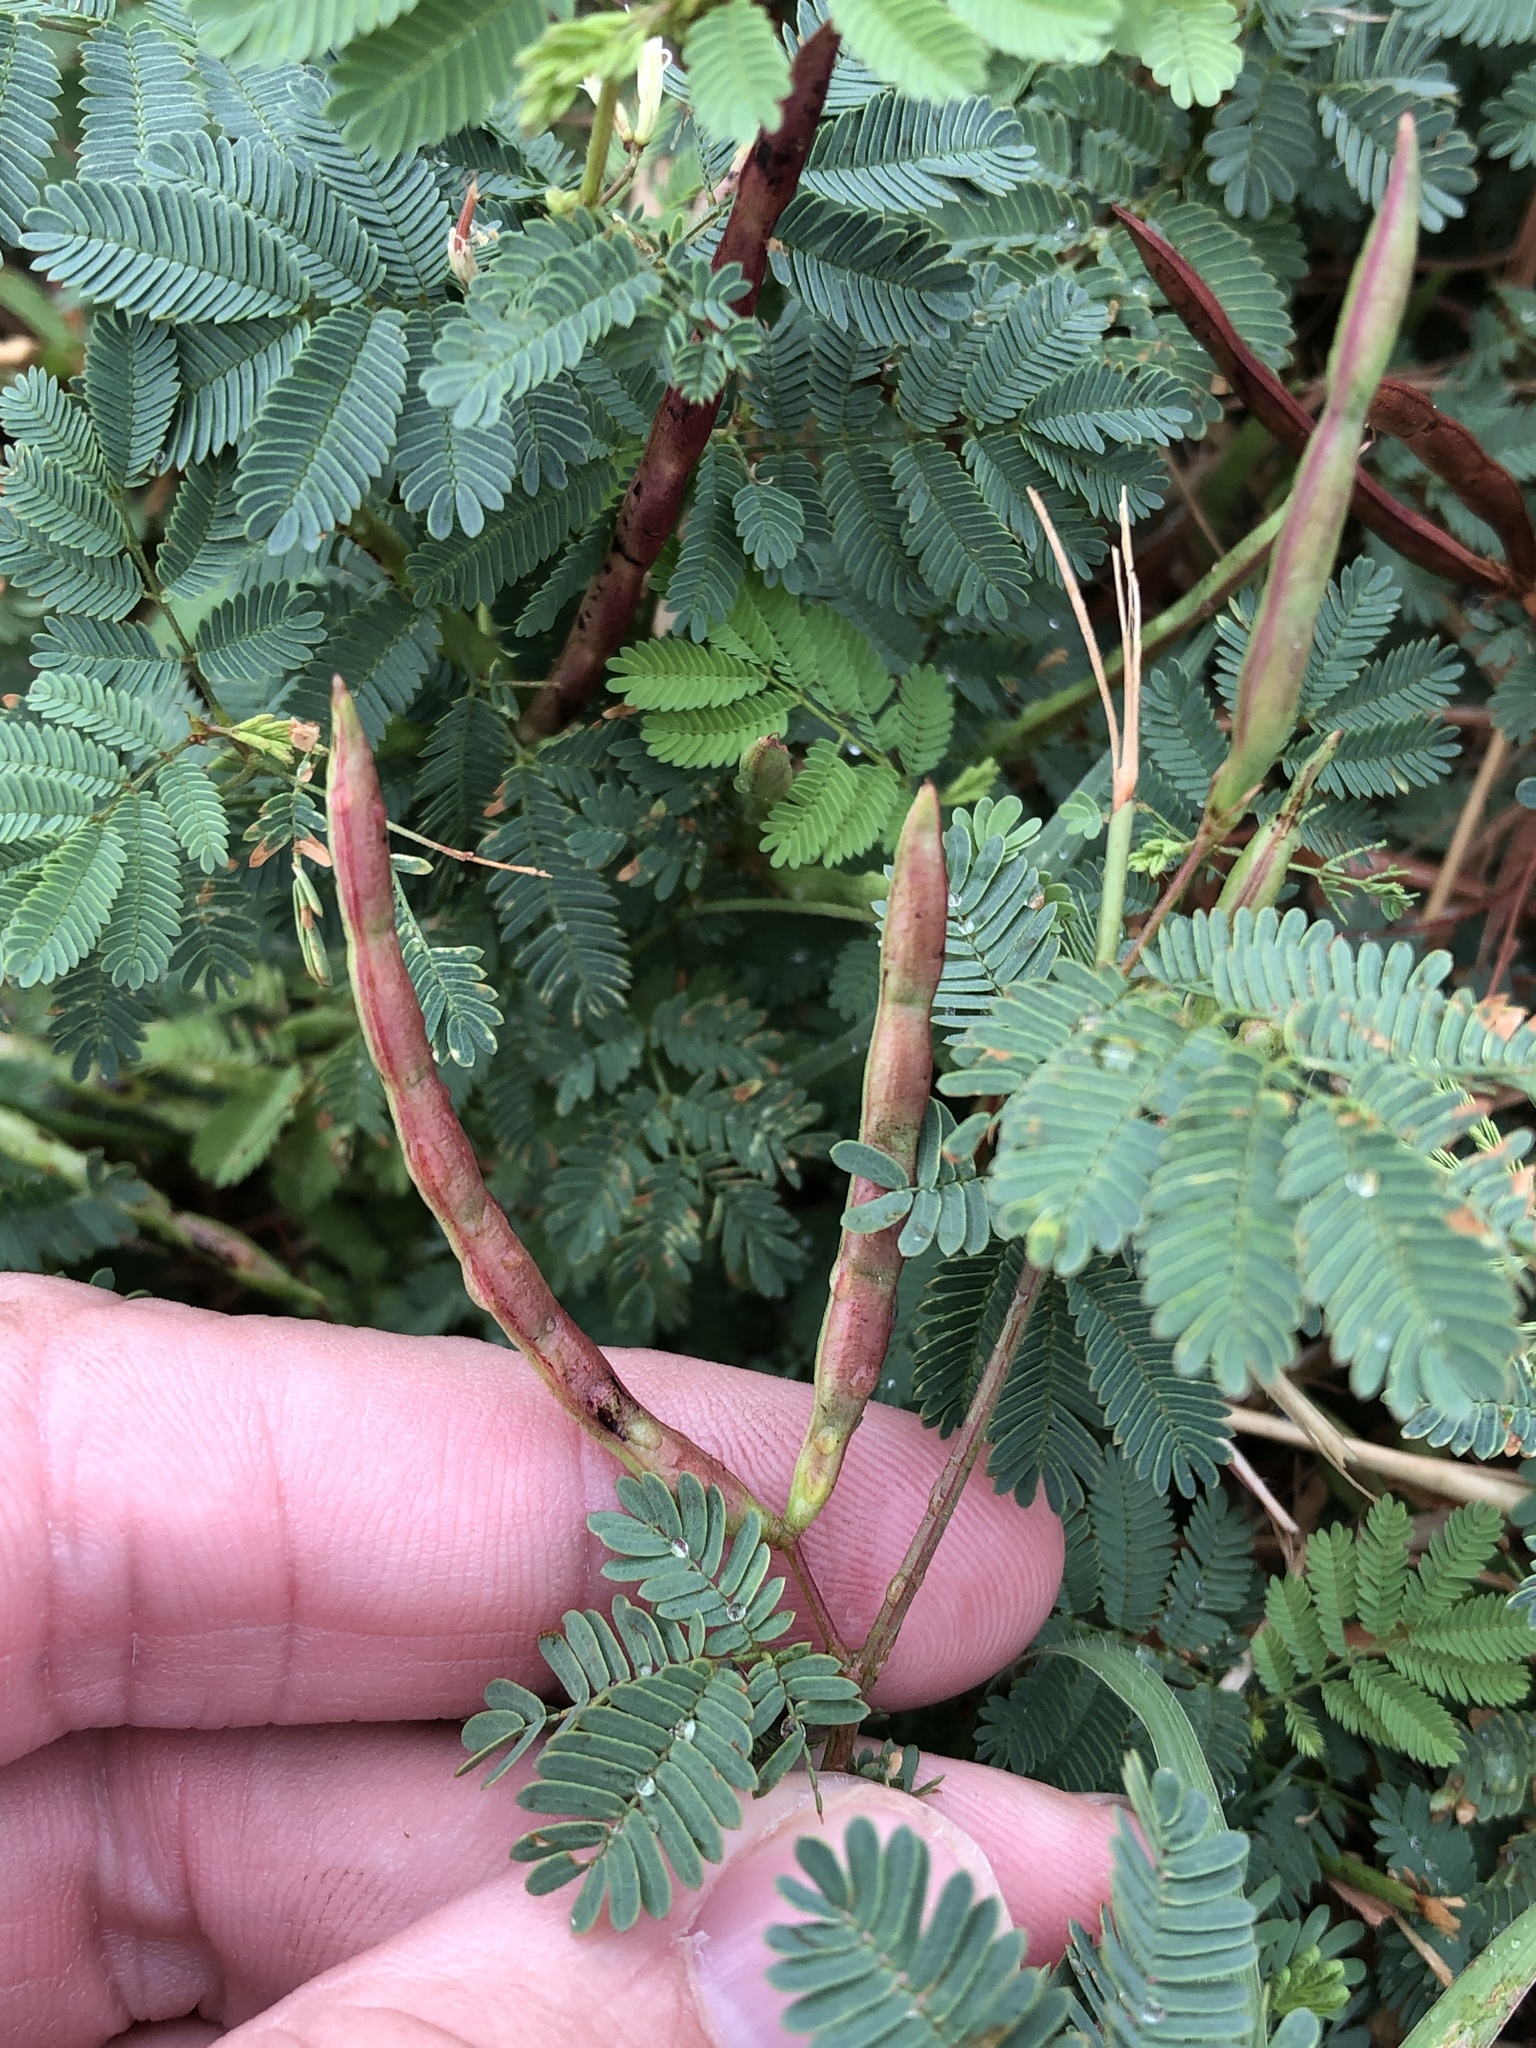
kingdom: Plantae
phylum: Tracheophyta
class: Magnoliopsida
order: Fabales
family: Fabaceae
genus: Desmanthus
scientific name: Desmanthus leptolobus
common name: Prairie-mimosa
